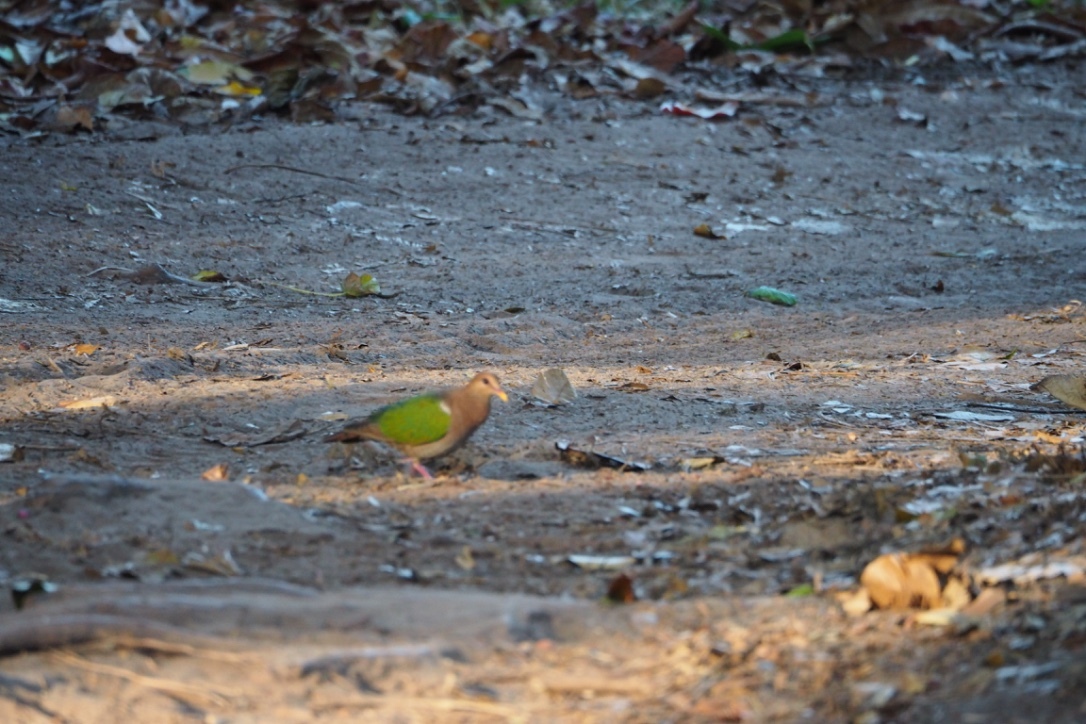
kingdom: Animalia
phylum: Chordata
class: Aves
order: Columbiformes
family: Columbidae
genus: Chalcophaps
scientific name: Chalcophaps longirostris
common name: Pacific emerald dove
